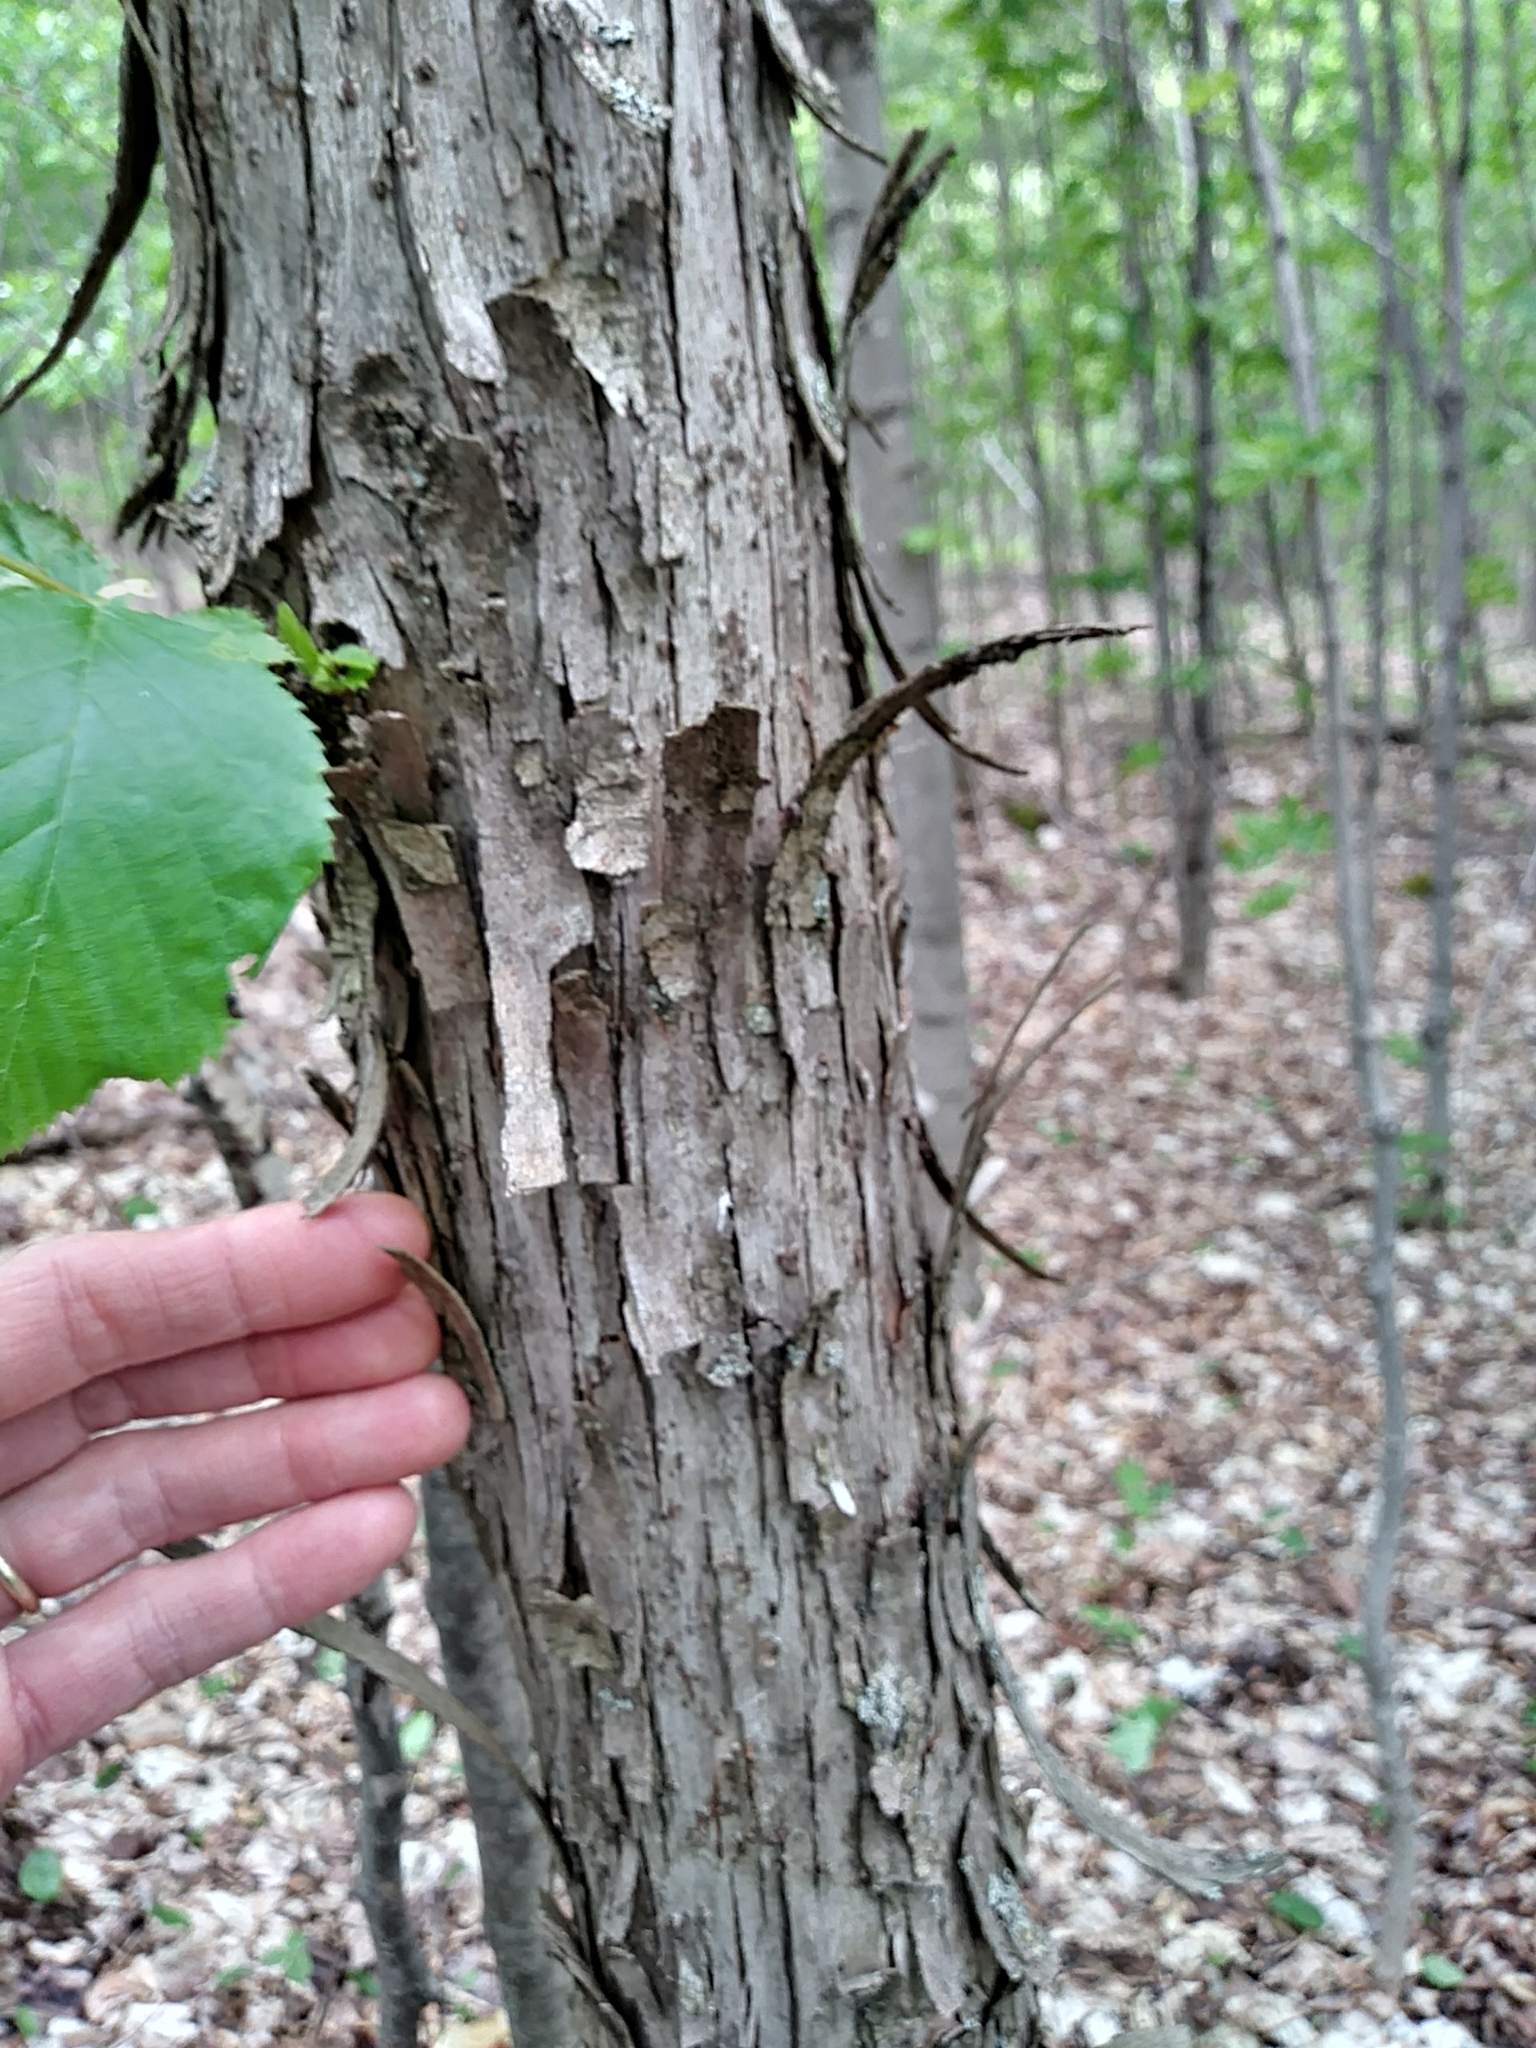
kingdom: Plantae
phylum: Tracheophyta
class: Magnoliopsida
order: Fagales
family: Betulaceae
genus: Ostrya
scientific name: Ostrya virginiana
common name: Ironwood
